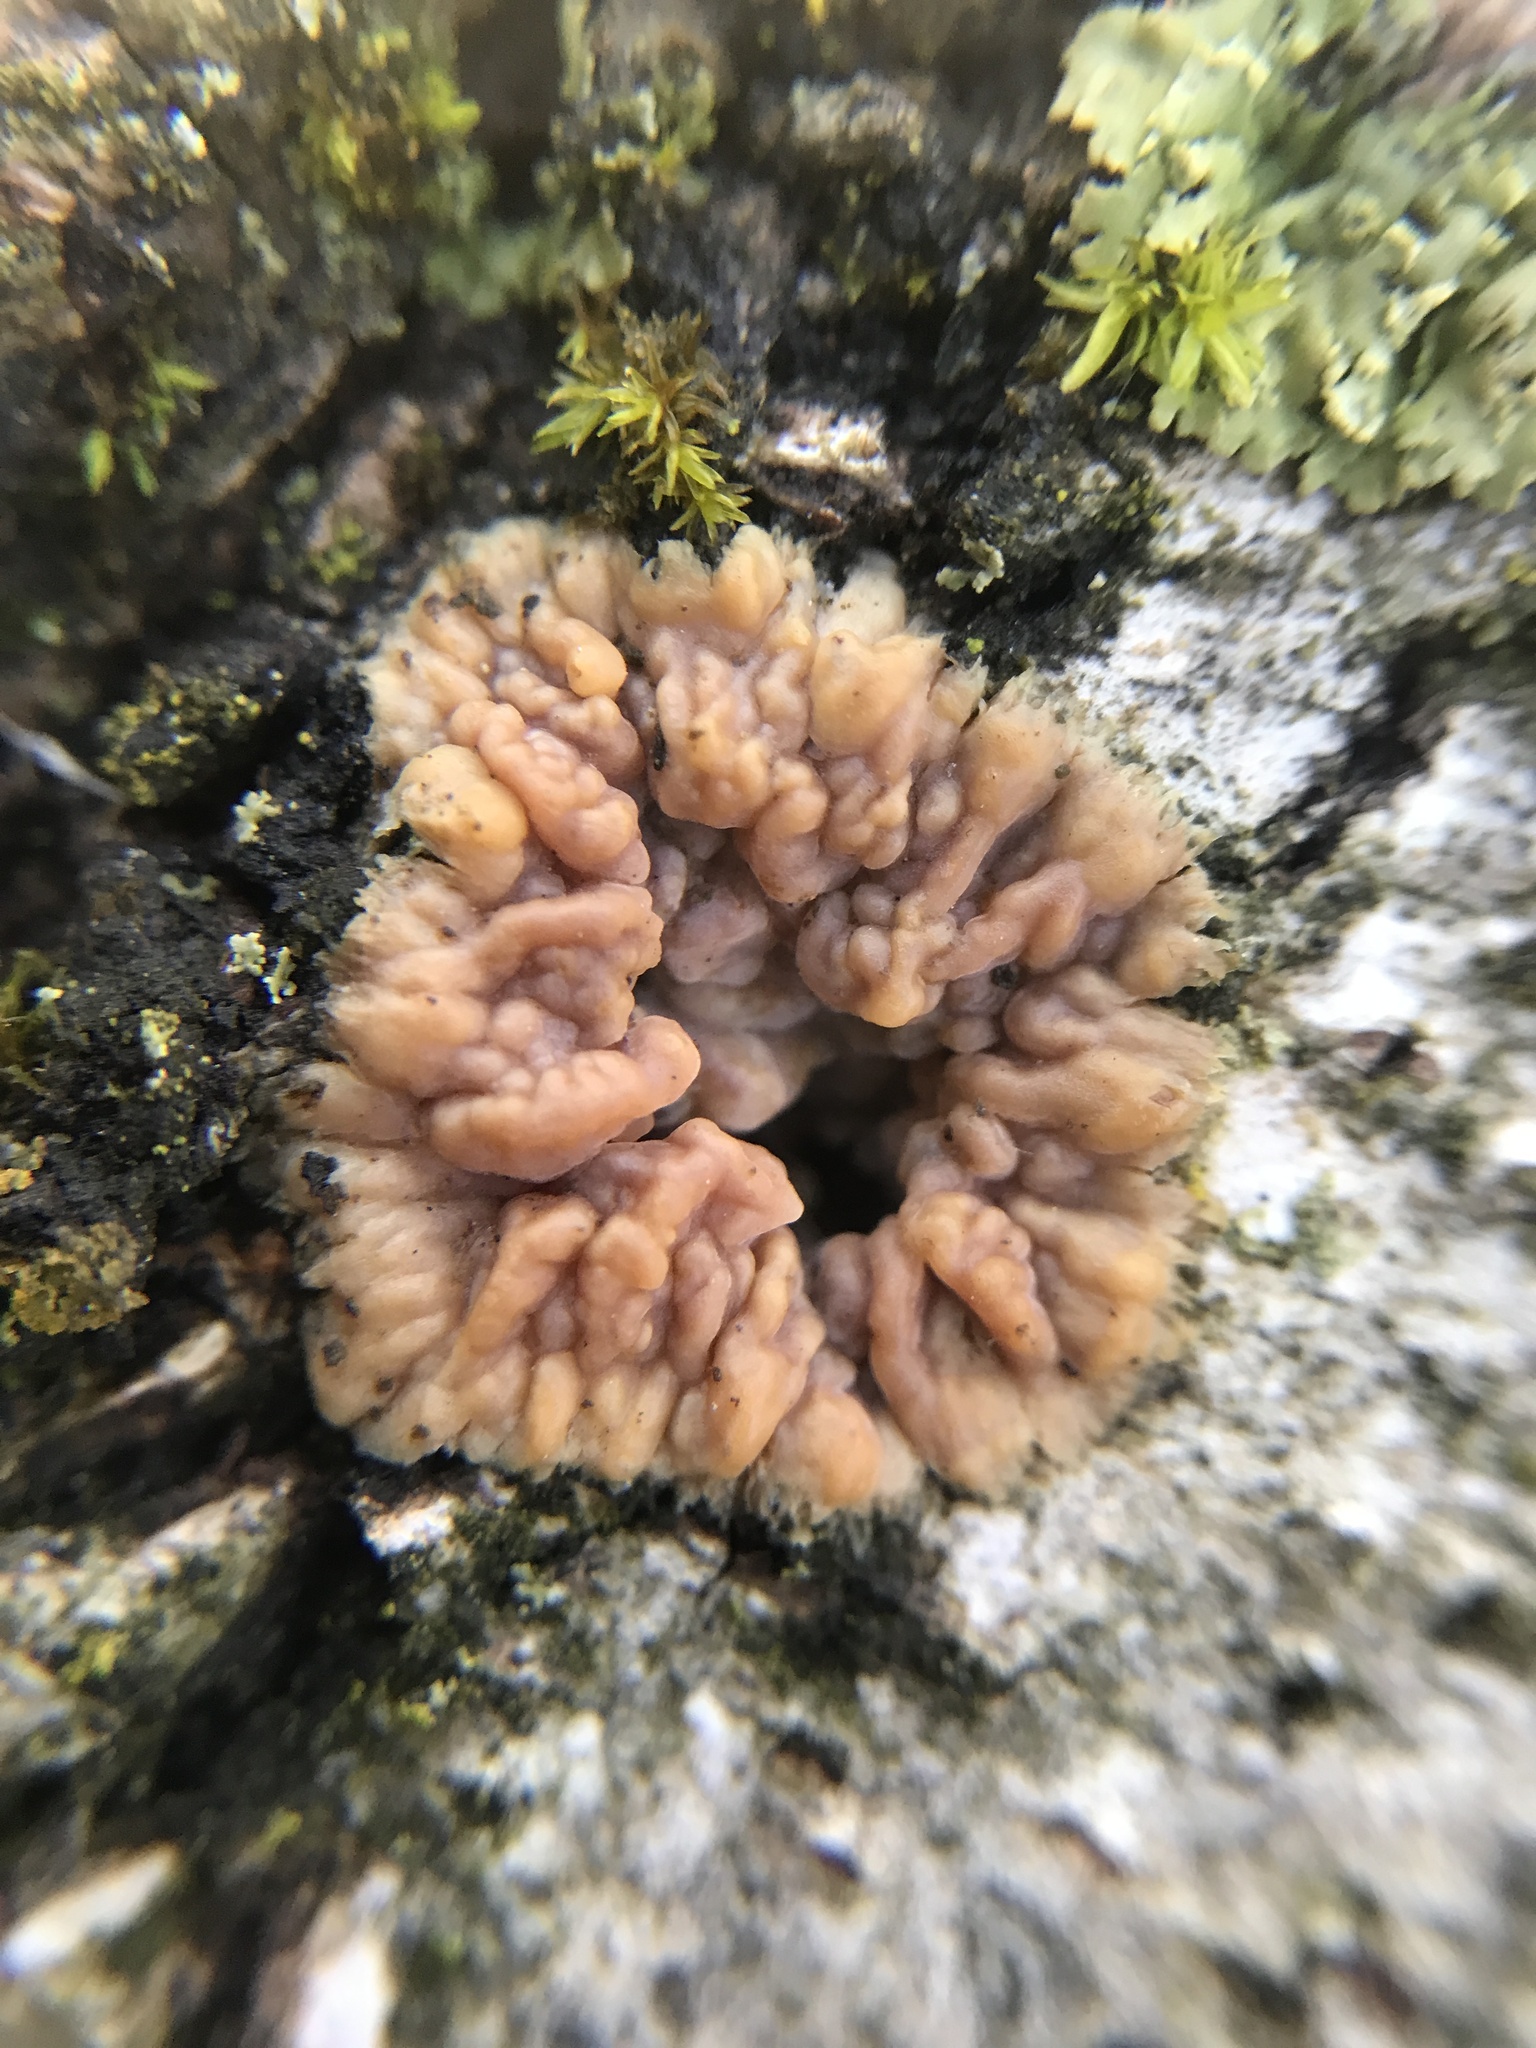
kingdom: Fungi
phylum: Basidiomycota
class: Agaricomycetes
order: Polyporales
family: Meruliaceae
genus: Phlebia
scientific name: Phlebia radiata
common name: Wrinkled crust
